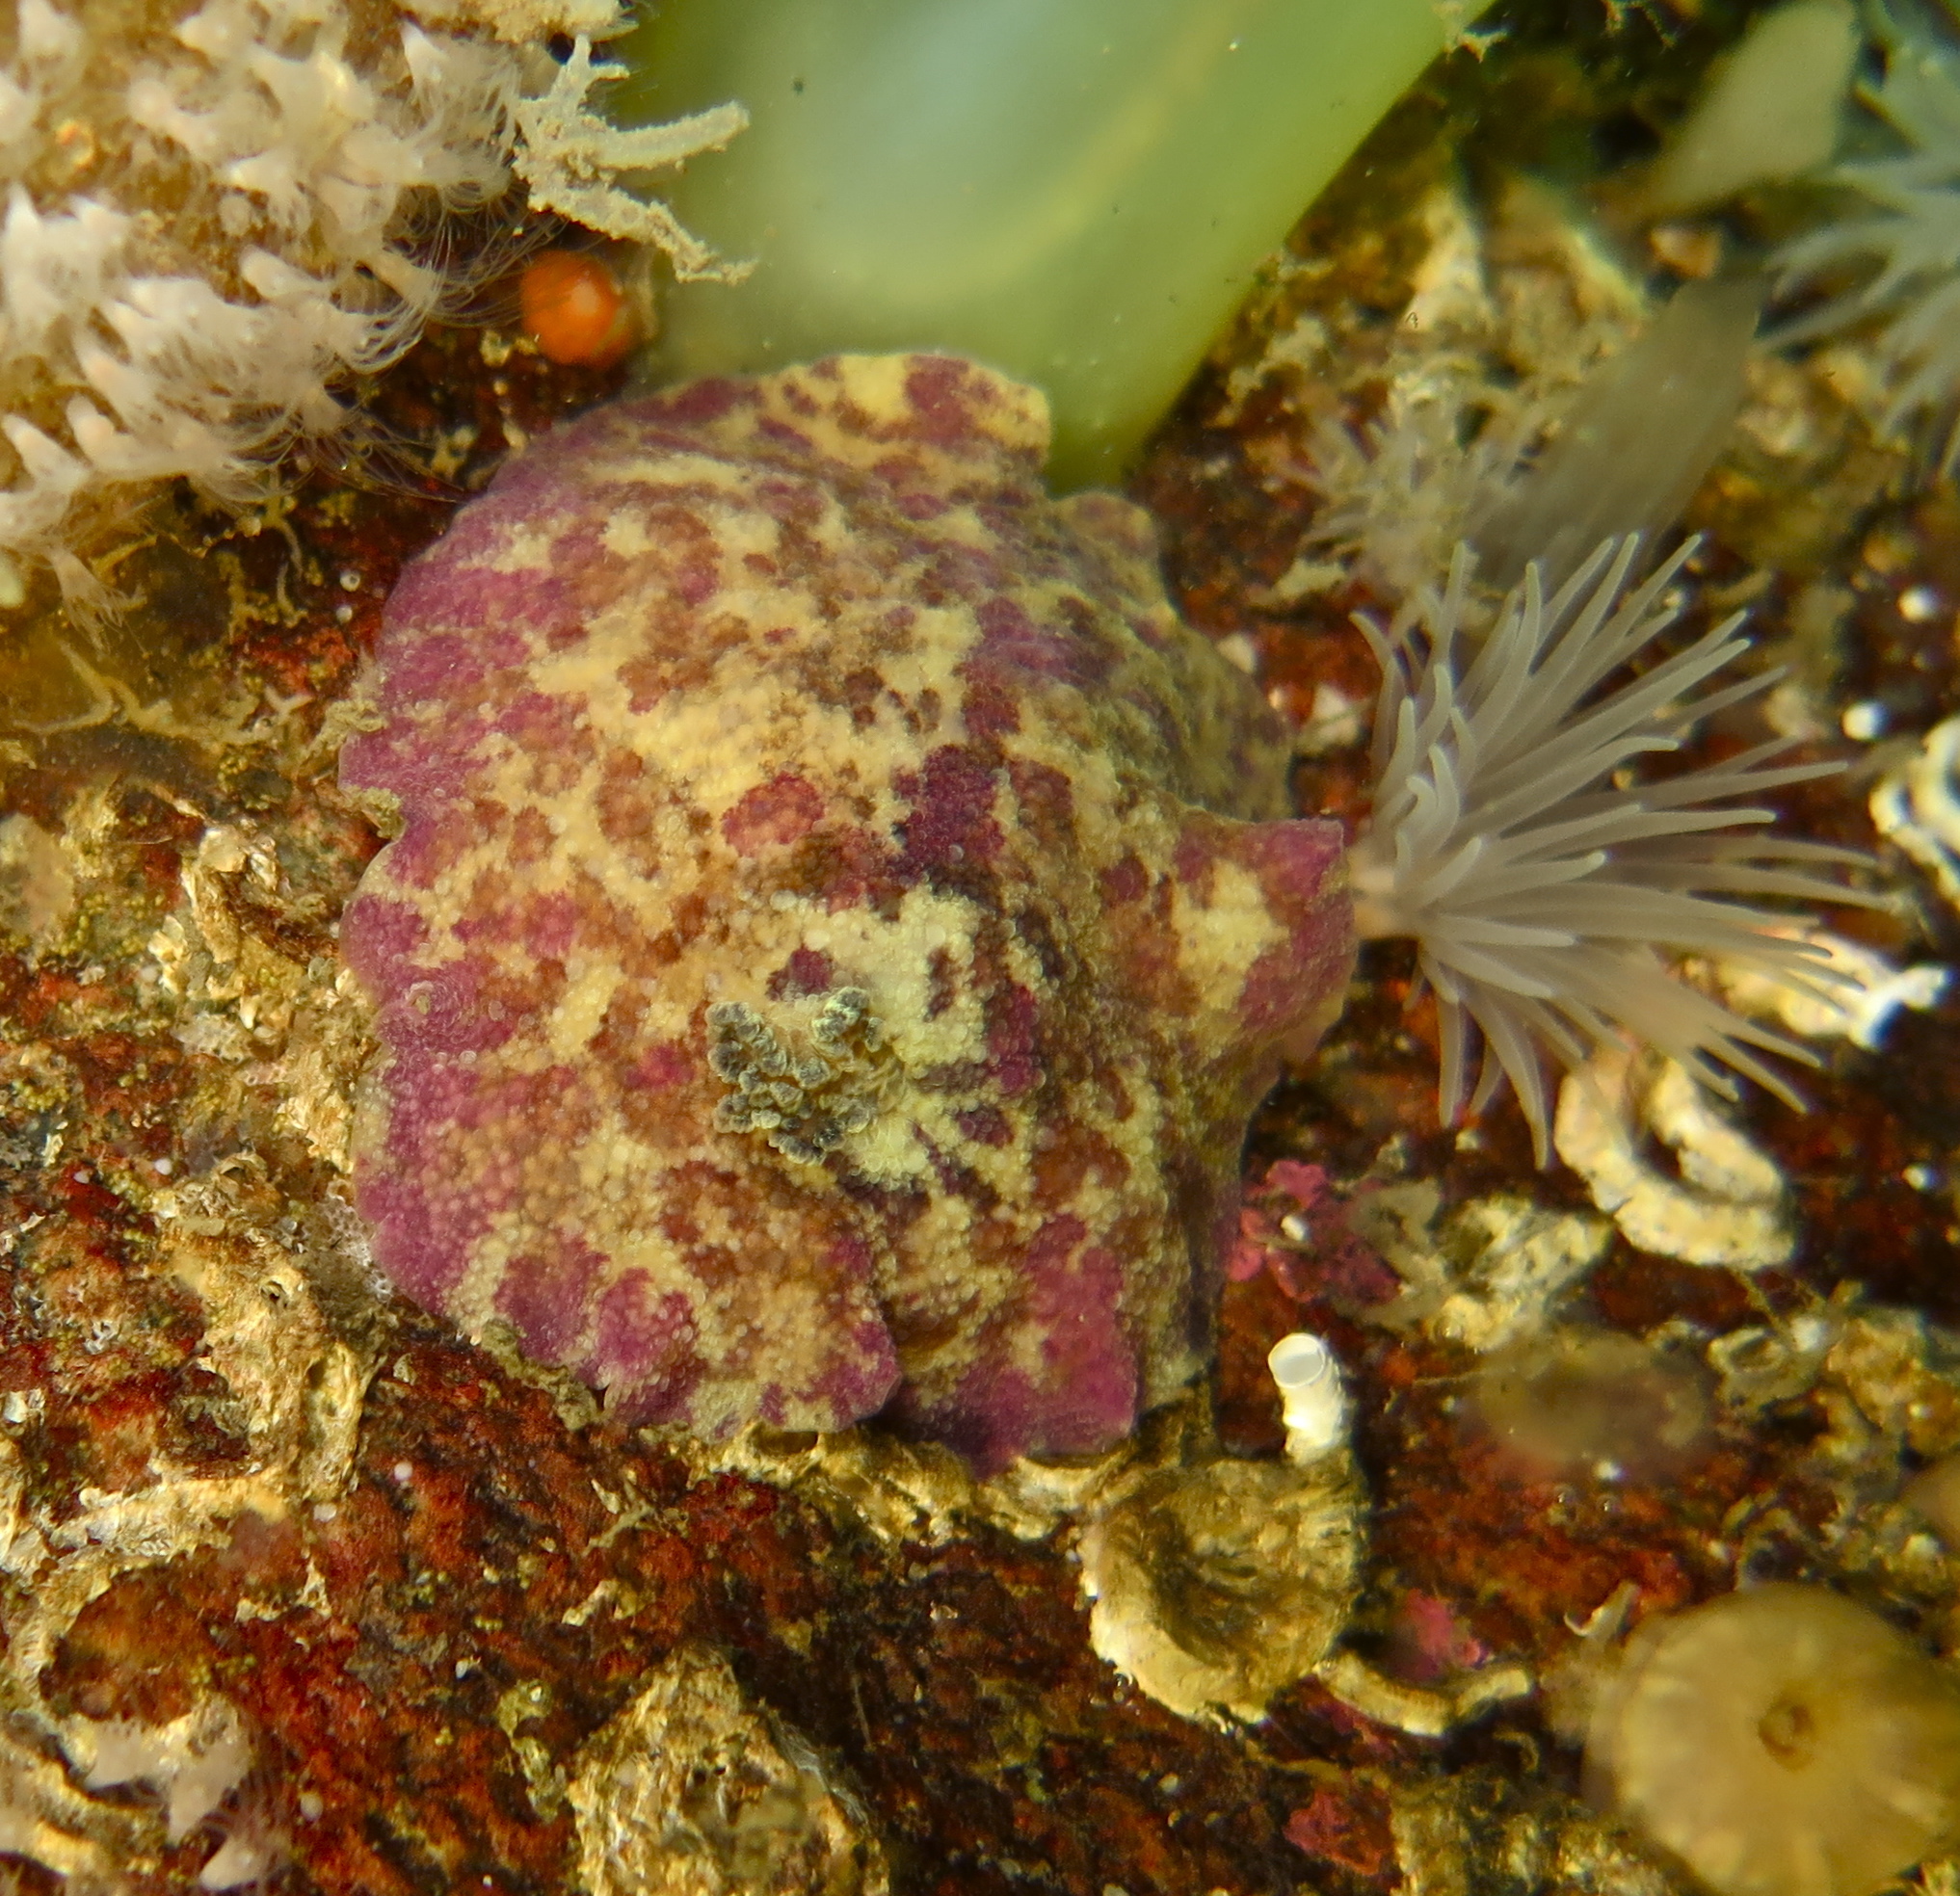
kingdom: Animalia
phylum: Mollusca
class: Gastropoda
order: Nudibranchia
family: Dorididae
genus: Doris
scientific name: Doris pseudoargus
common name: Sea lemon
